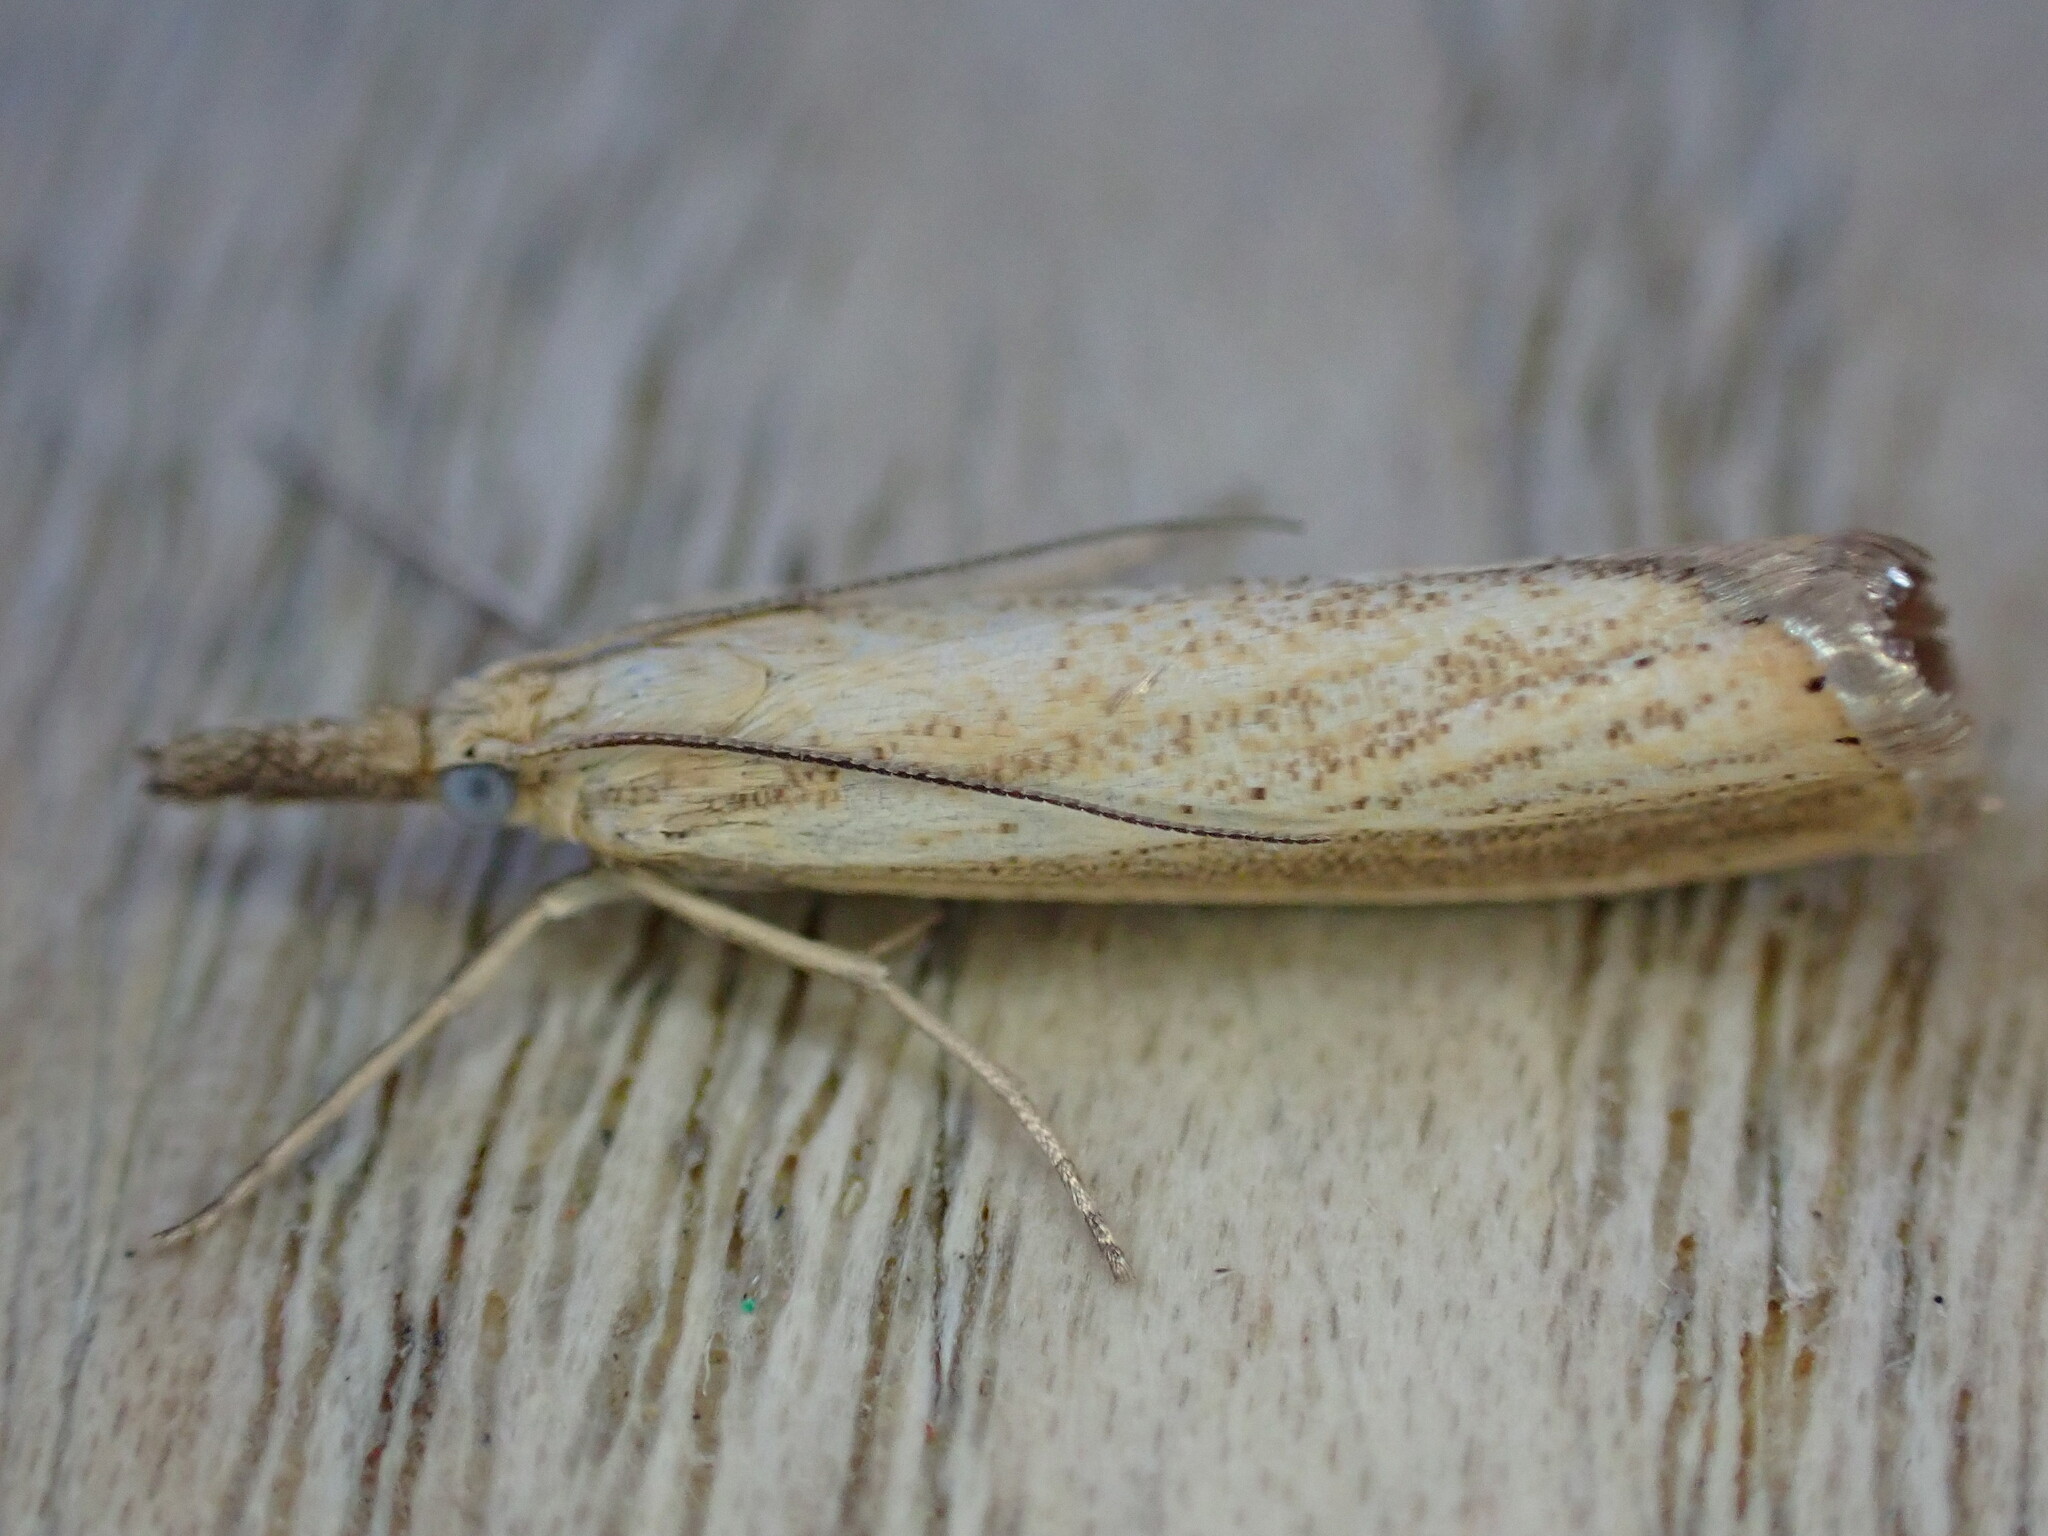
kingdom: Animalia
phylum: Arthropoda
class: Insecta
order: Lepidoptera
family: Crambidae
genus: Agriphila
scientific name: Agriphila straminella
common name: Straw grass-veneer
